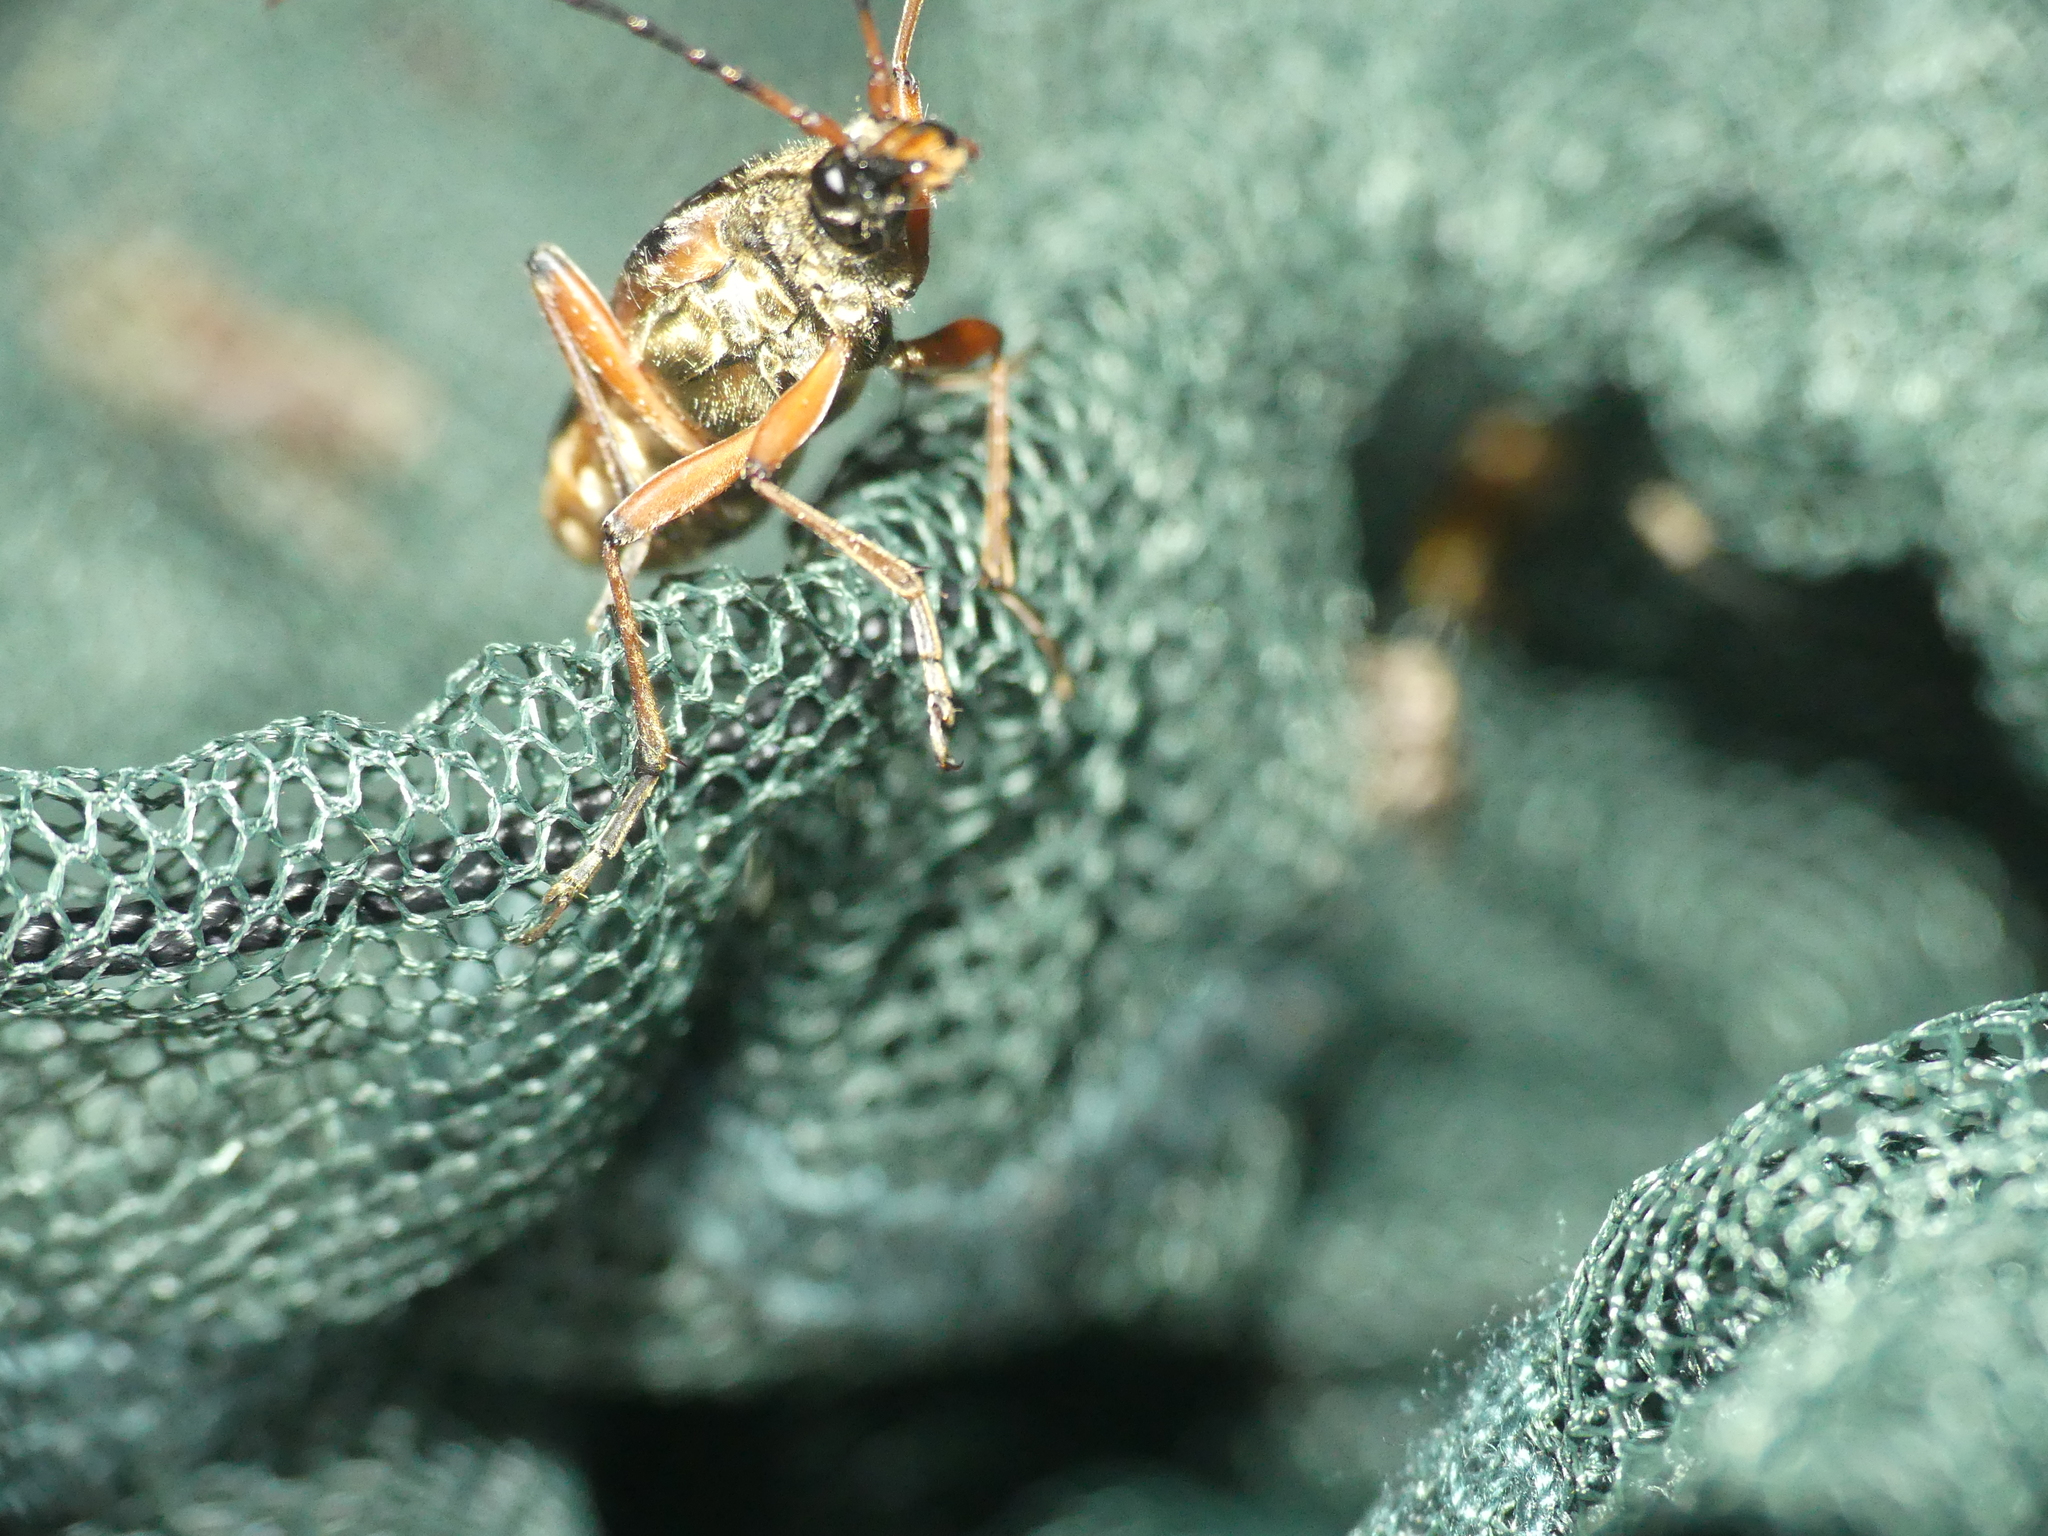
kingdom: Animalia
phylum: Arthropoda
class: Insecta
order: Coleoptera
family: Cerambycidae
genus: Stenocorus
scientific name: Stenocorus meridianus
